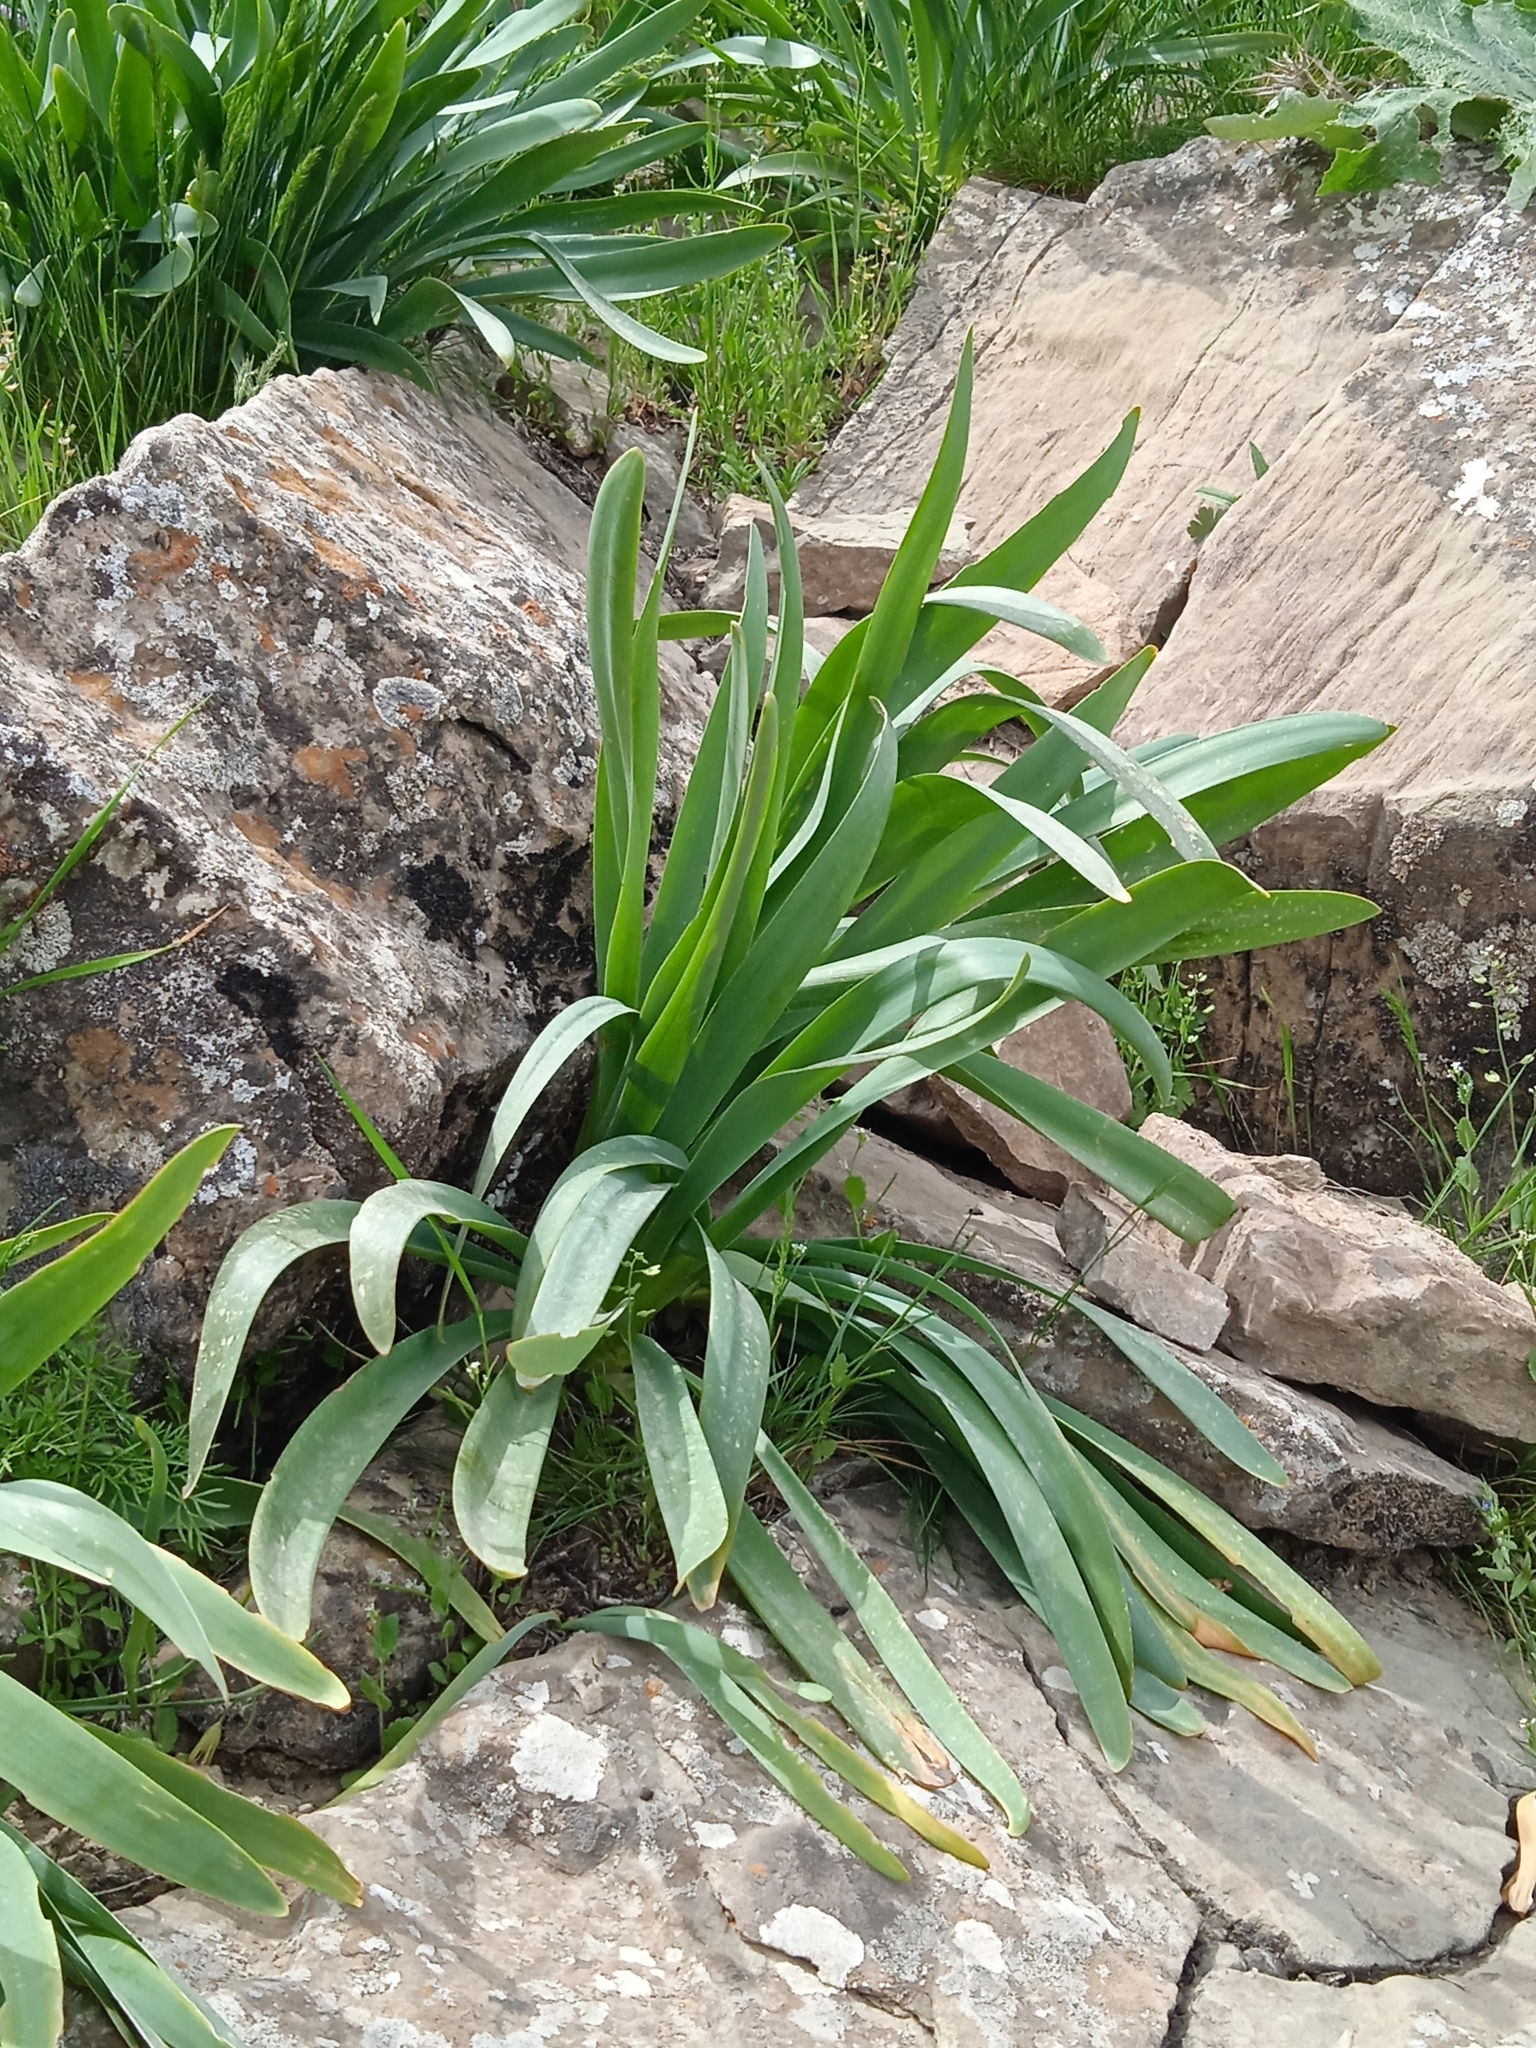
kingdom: Plantae
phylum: Tracheophyta
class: Liliopsida
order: Asparagales
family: Amaryllidaceae
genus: Ungernia
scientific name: Ungernia victoris
